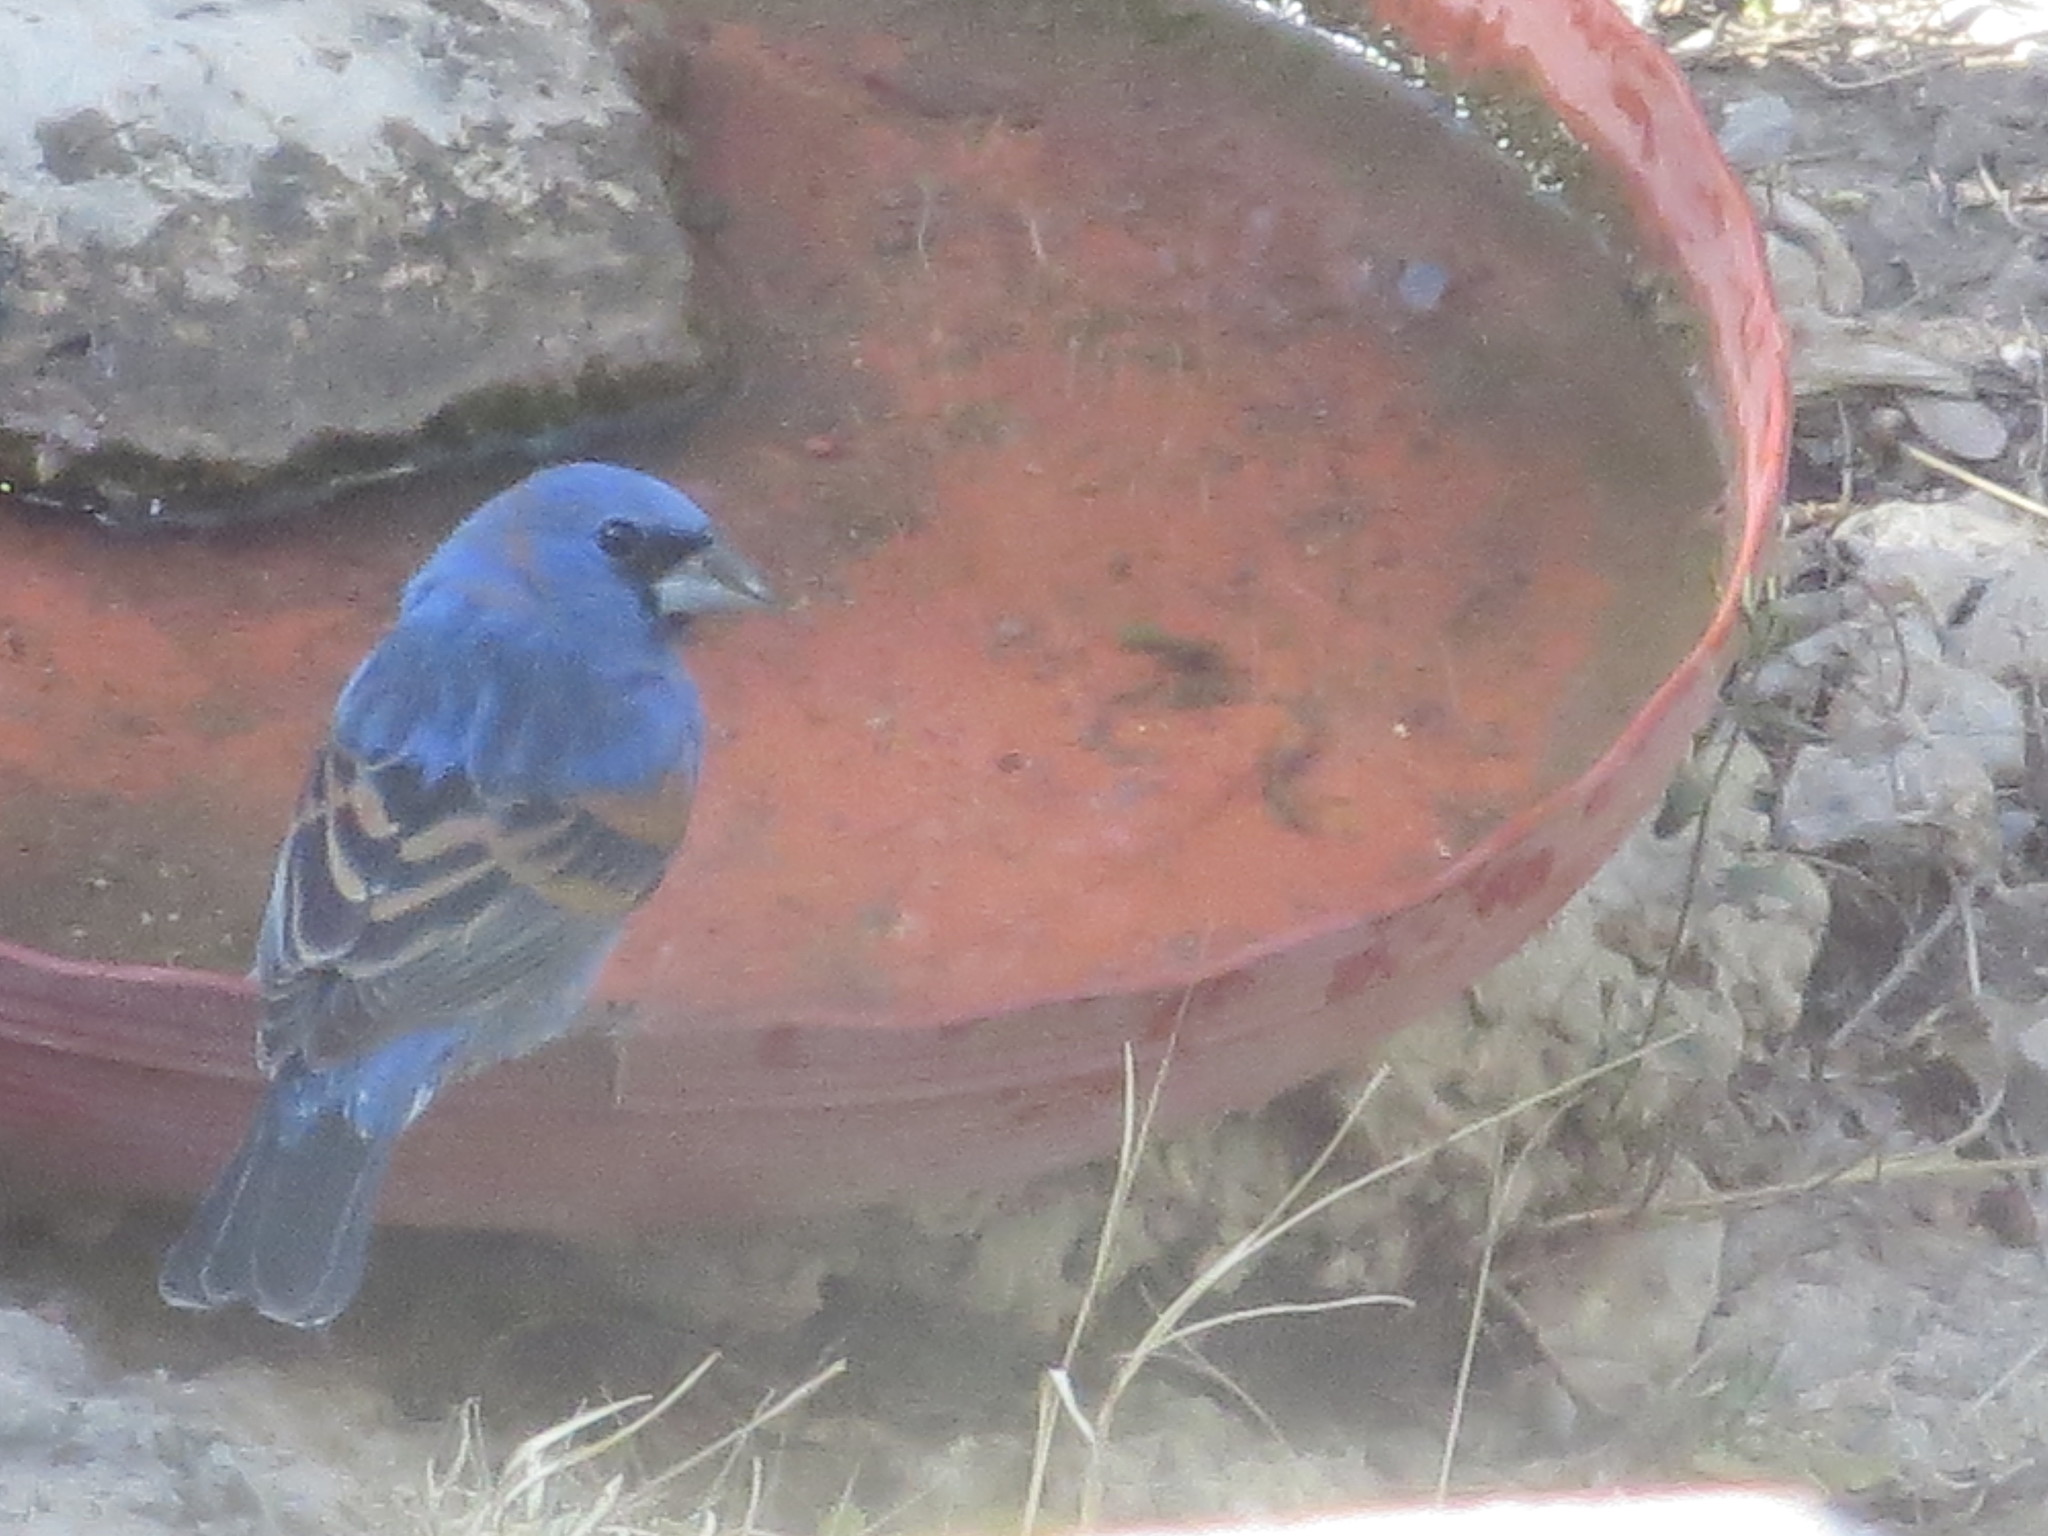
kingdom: Animalia
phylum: Chordata
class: Aves
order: Passeriformes
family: Cardinalidae
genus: Passerina
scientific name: Passerina caerulea
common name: Blue grosbeak
